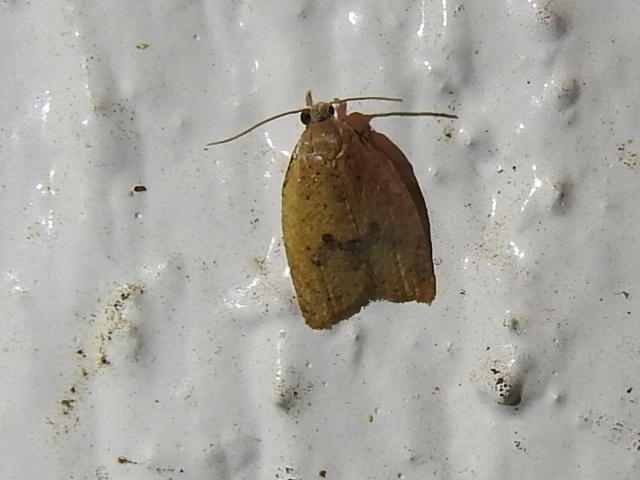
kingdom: Animalia
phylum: Arthropoda
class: Insecta
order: Lepidoptera
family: Tortricidae
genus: Sparganothoides
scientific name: Sparganothoides lentiginosana
